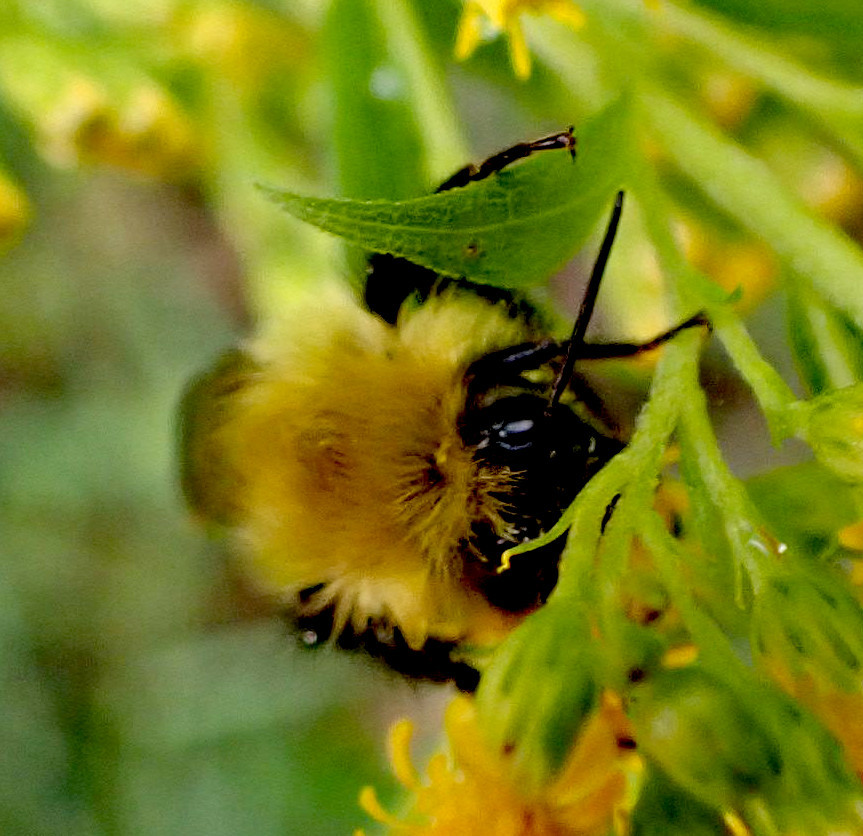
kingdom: Animalia
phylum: Arthropoda
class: Insecta
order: Hymenoptera
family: Apidae
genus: Bombus
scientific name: Bombus perplexus
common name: Confusing bumble bee
